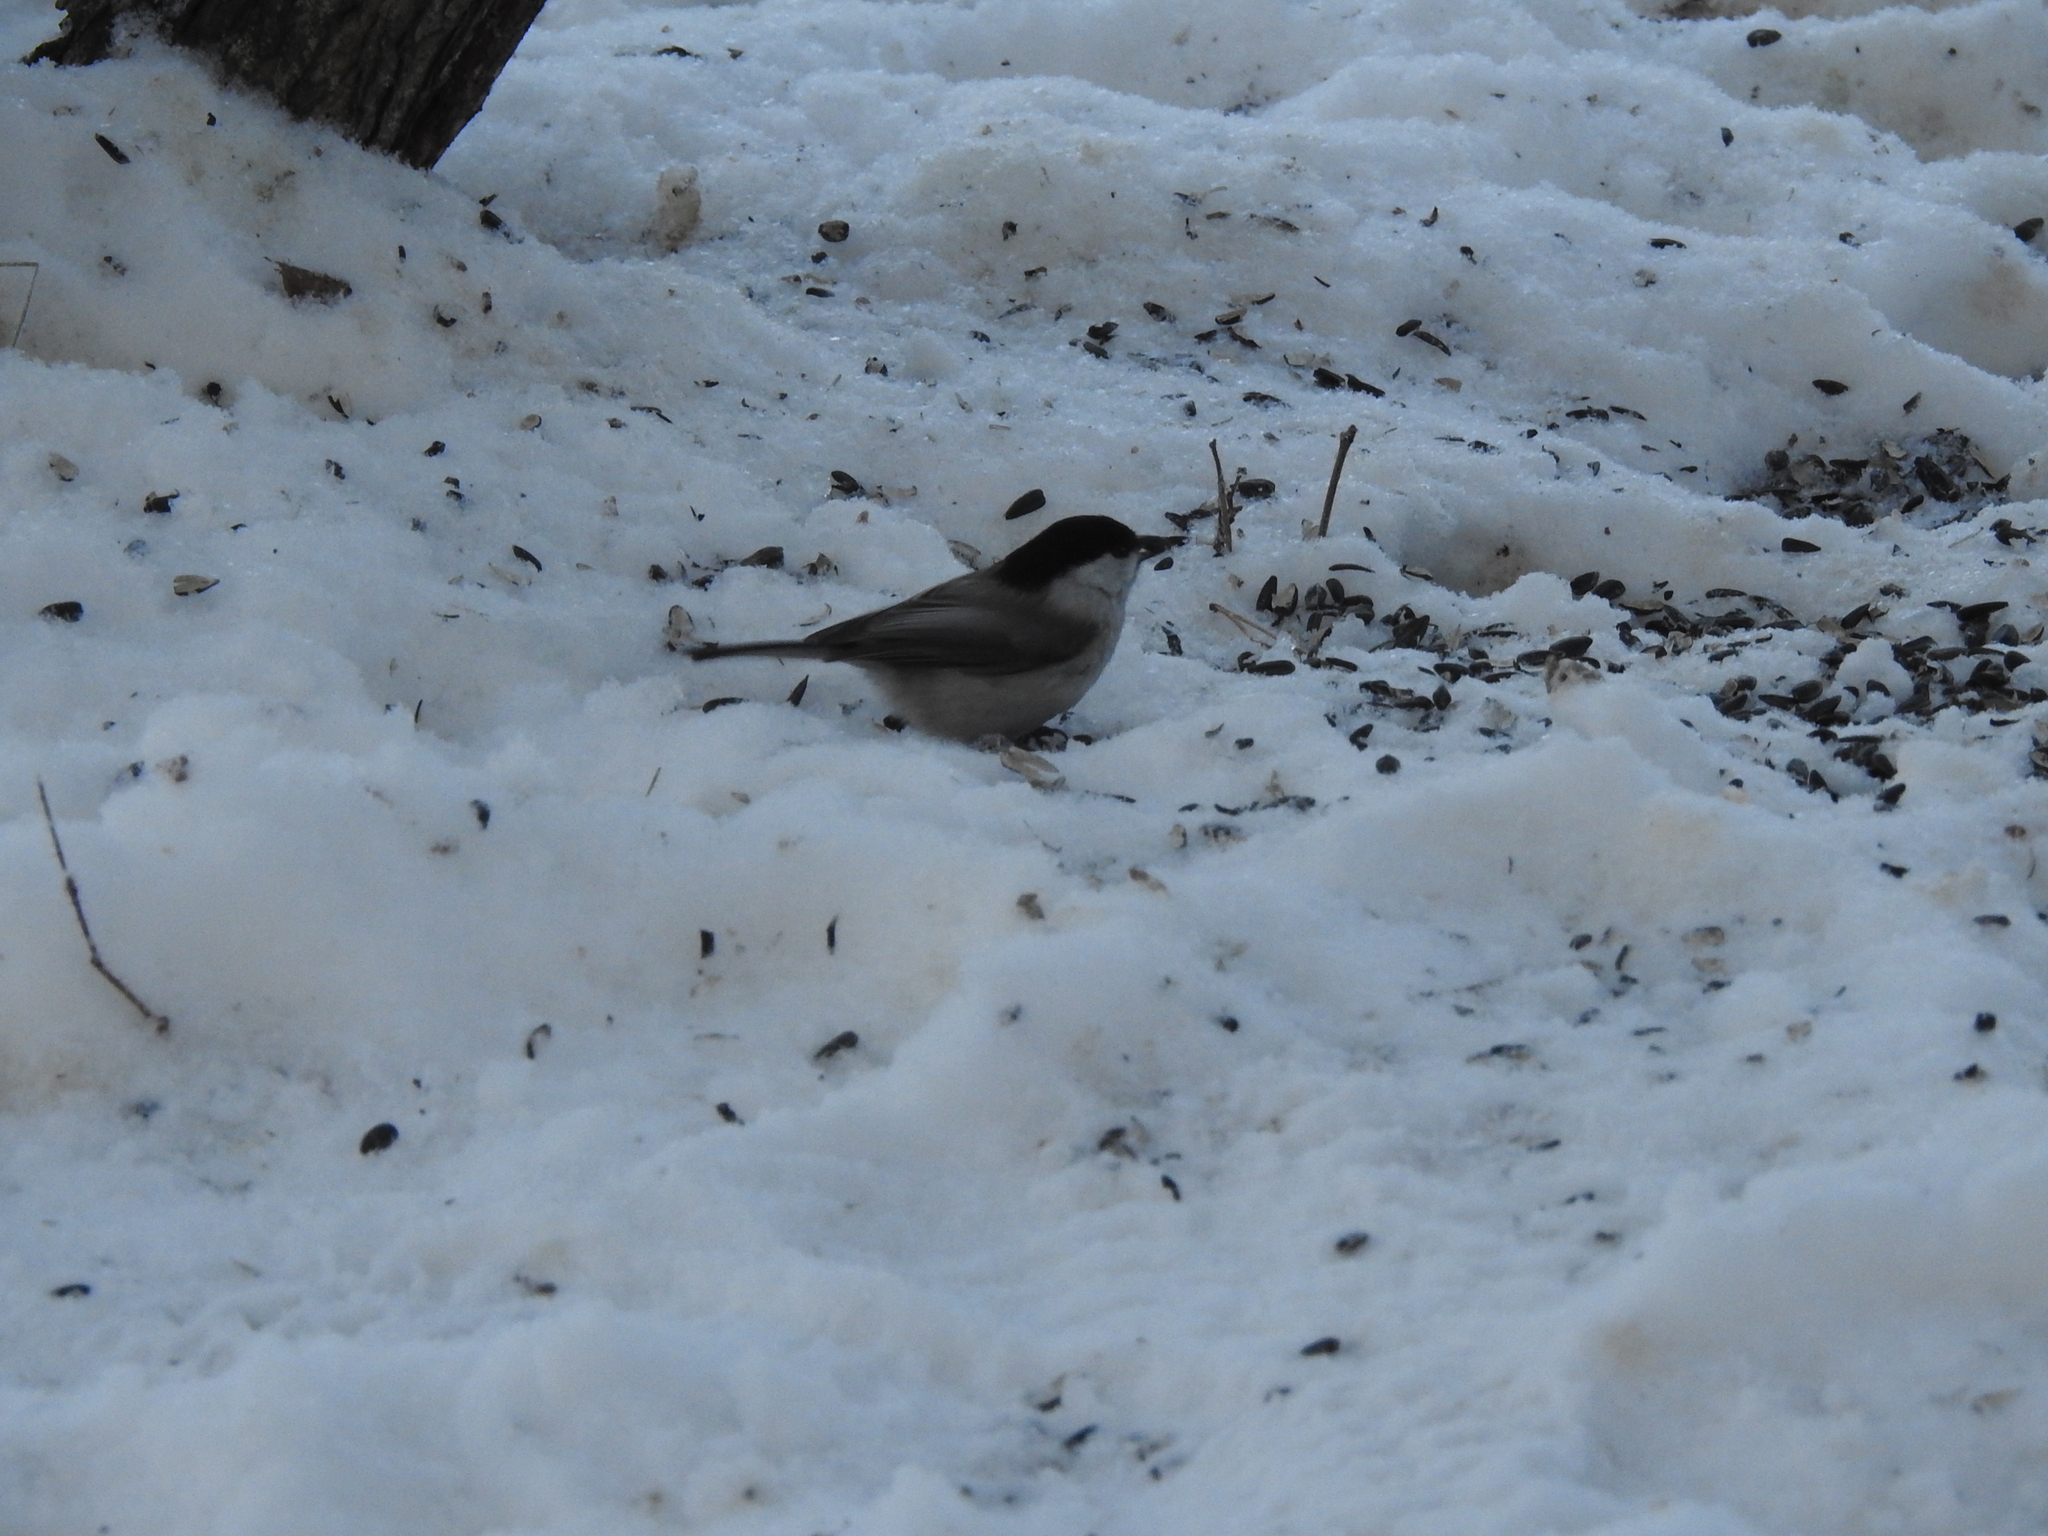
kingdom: Animalia
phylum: Chordata
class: Aves
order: Passeriformes
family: Paridae
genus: Poecile
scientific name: Poecile montanus
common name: Willow tit
